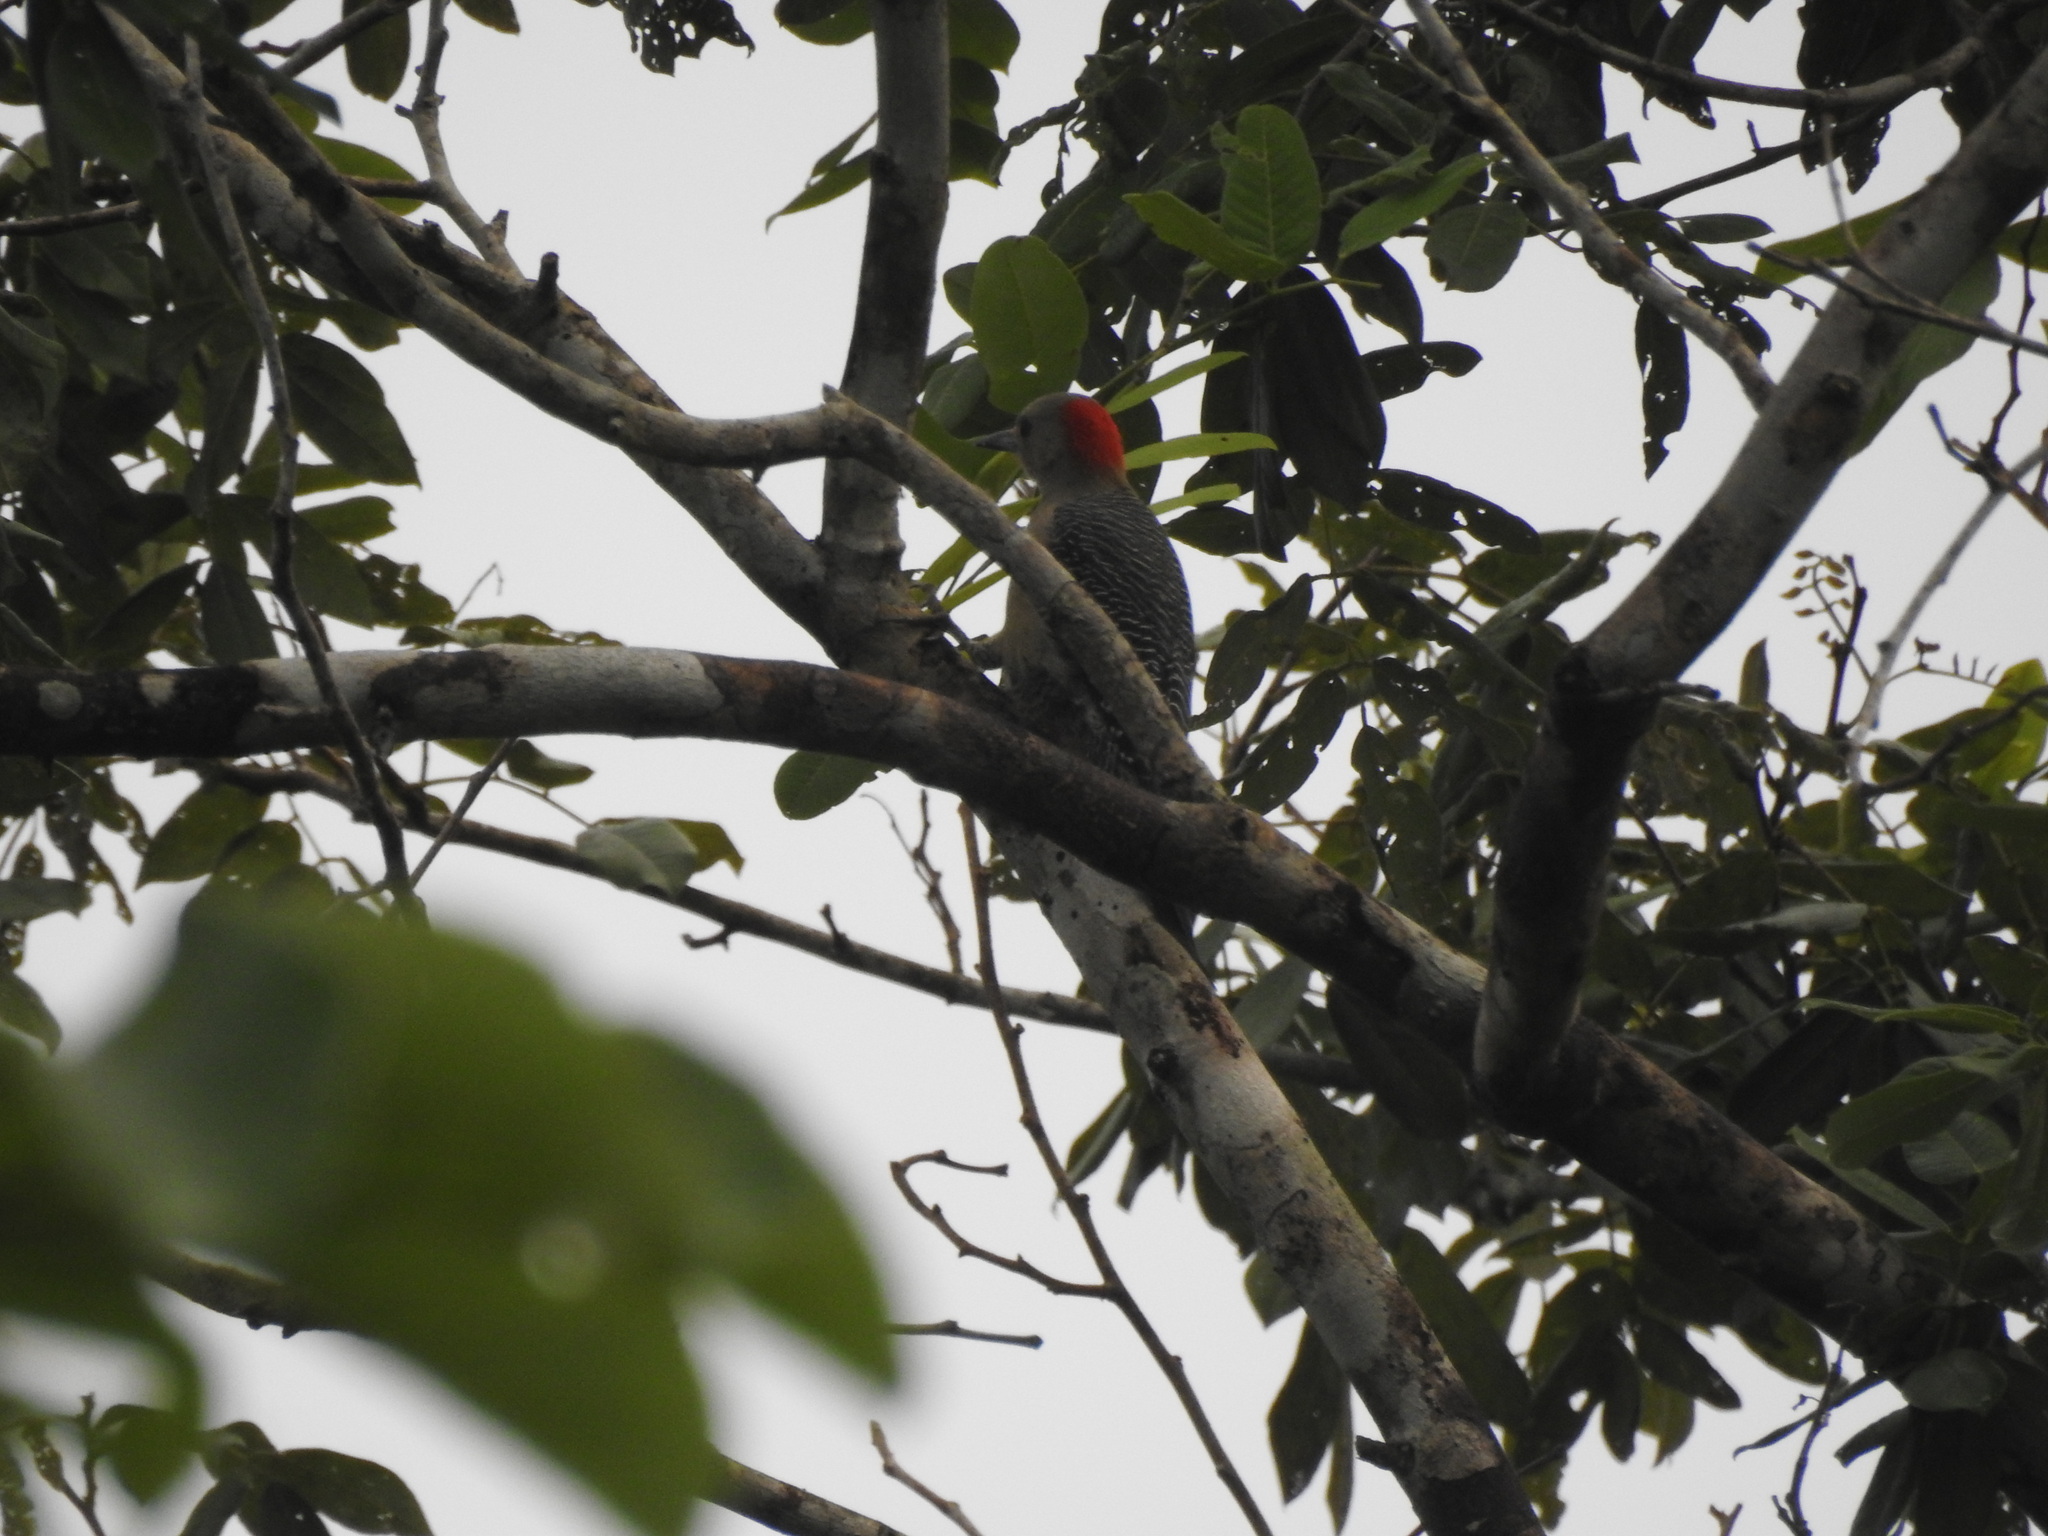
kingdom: Animalia
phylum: Chordata
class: Aves
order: Piciformes
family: Picidae
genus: Melanerpes
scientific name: Melanerpes aurifrons
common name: Golden-fronted woodpecker
